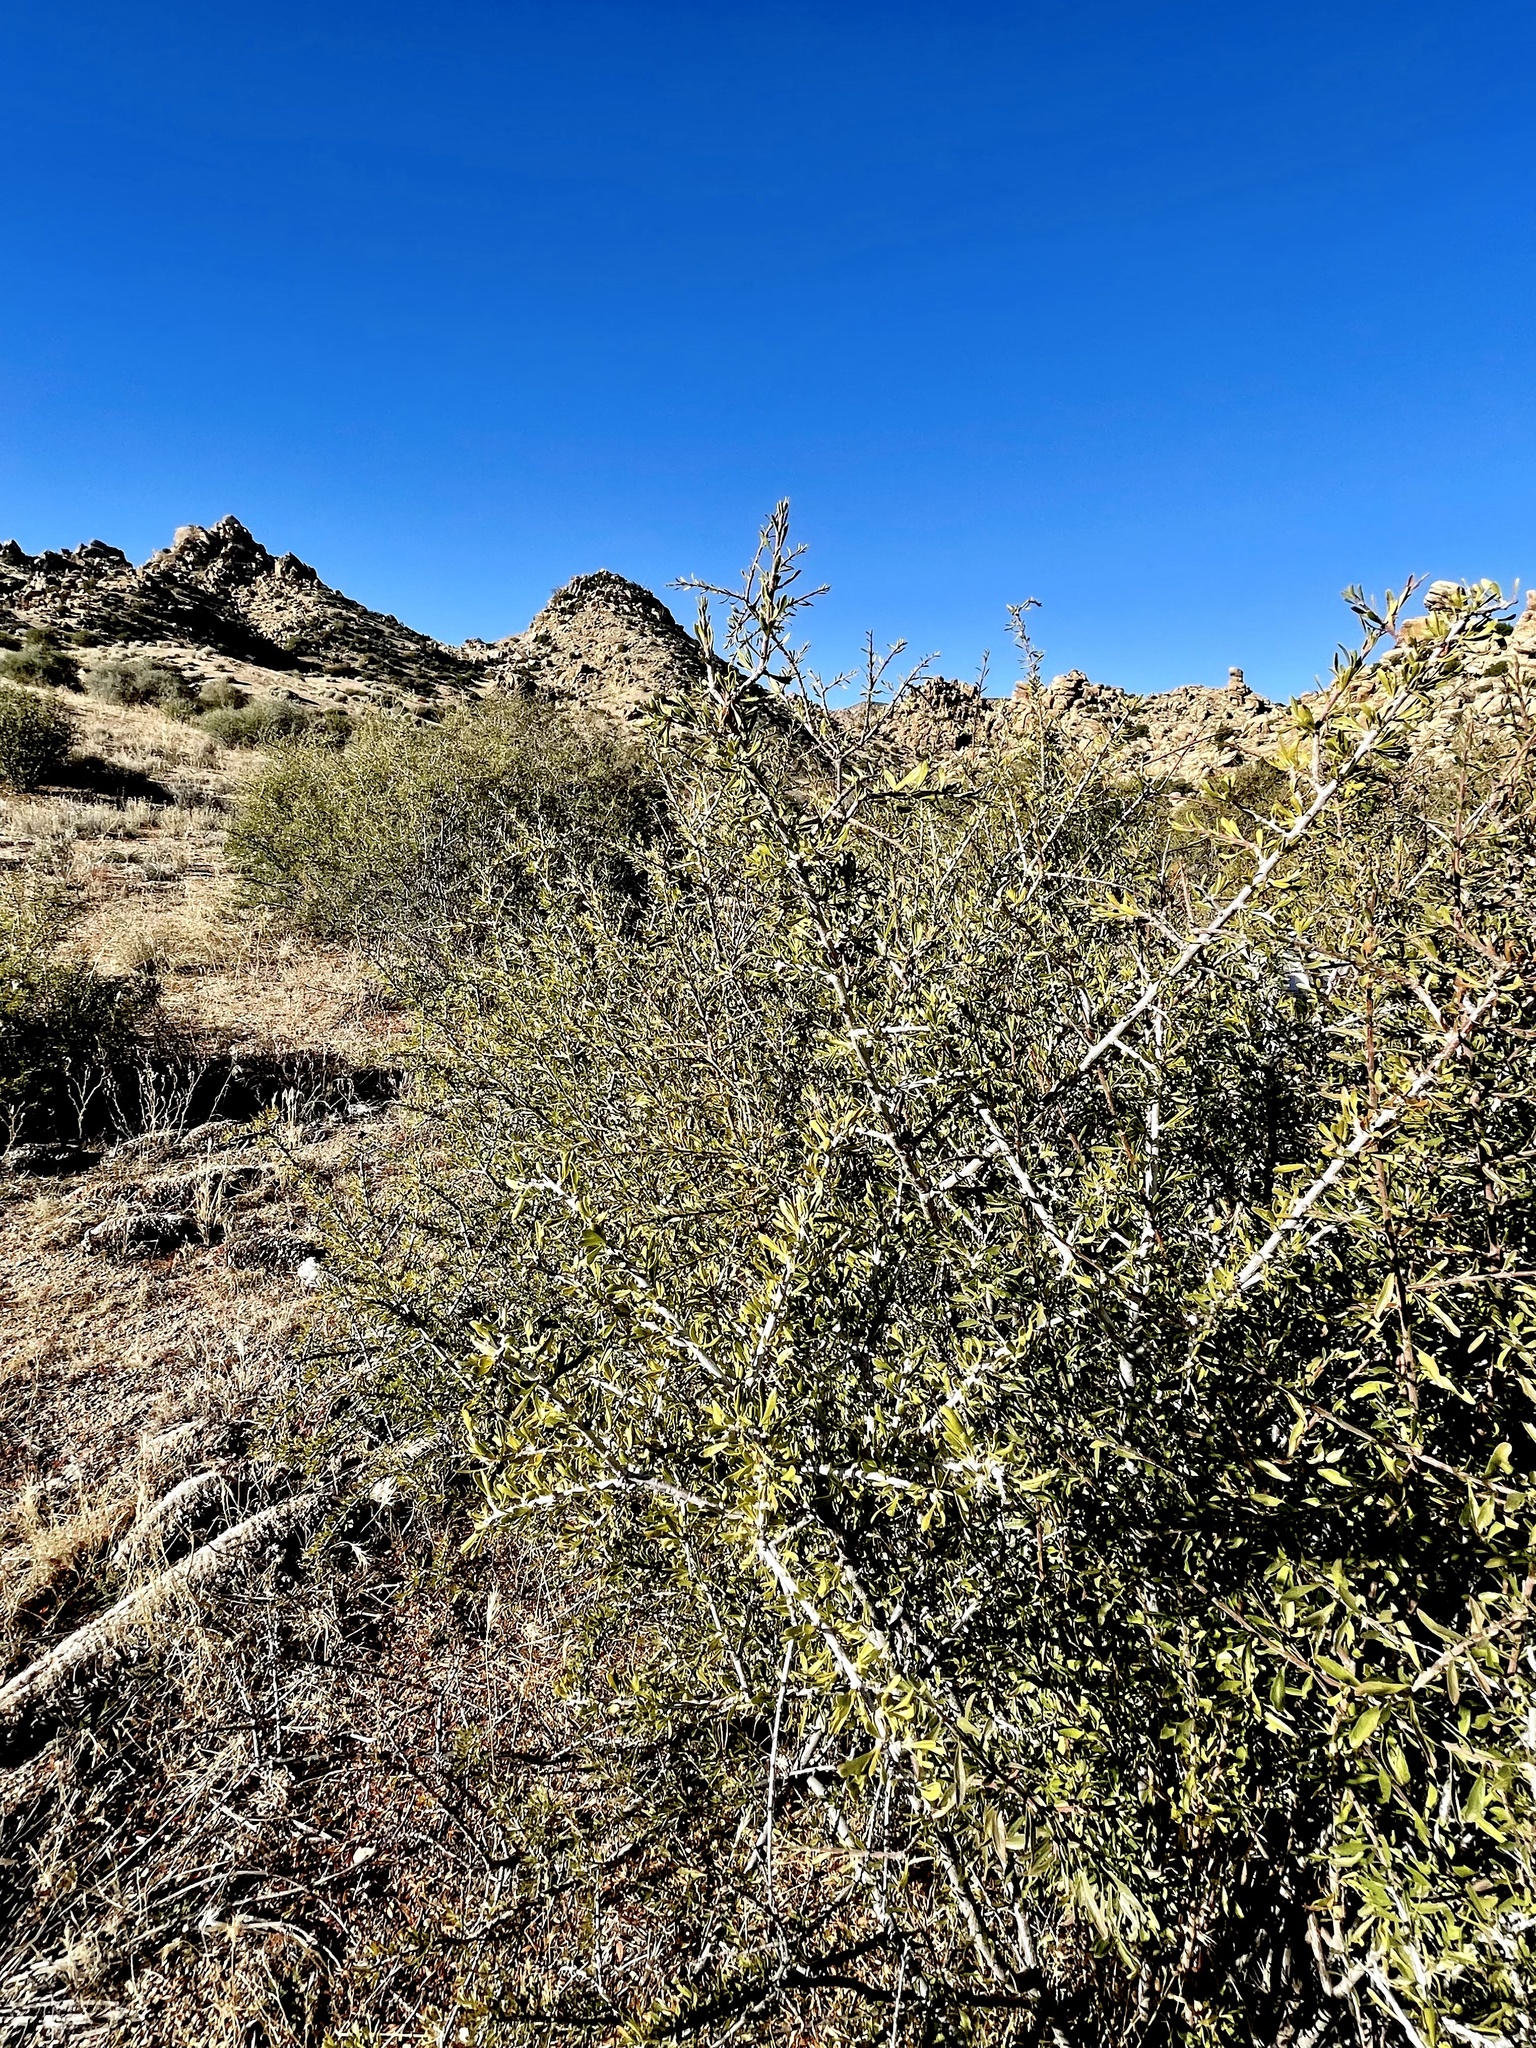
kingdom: Plantae
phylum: Tracheophyta
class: Magnoliopsida
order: Rosales
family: Rosaceae
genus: Prunus
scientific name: Prunus fasciculata
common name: Desert almond
